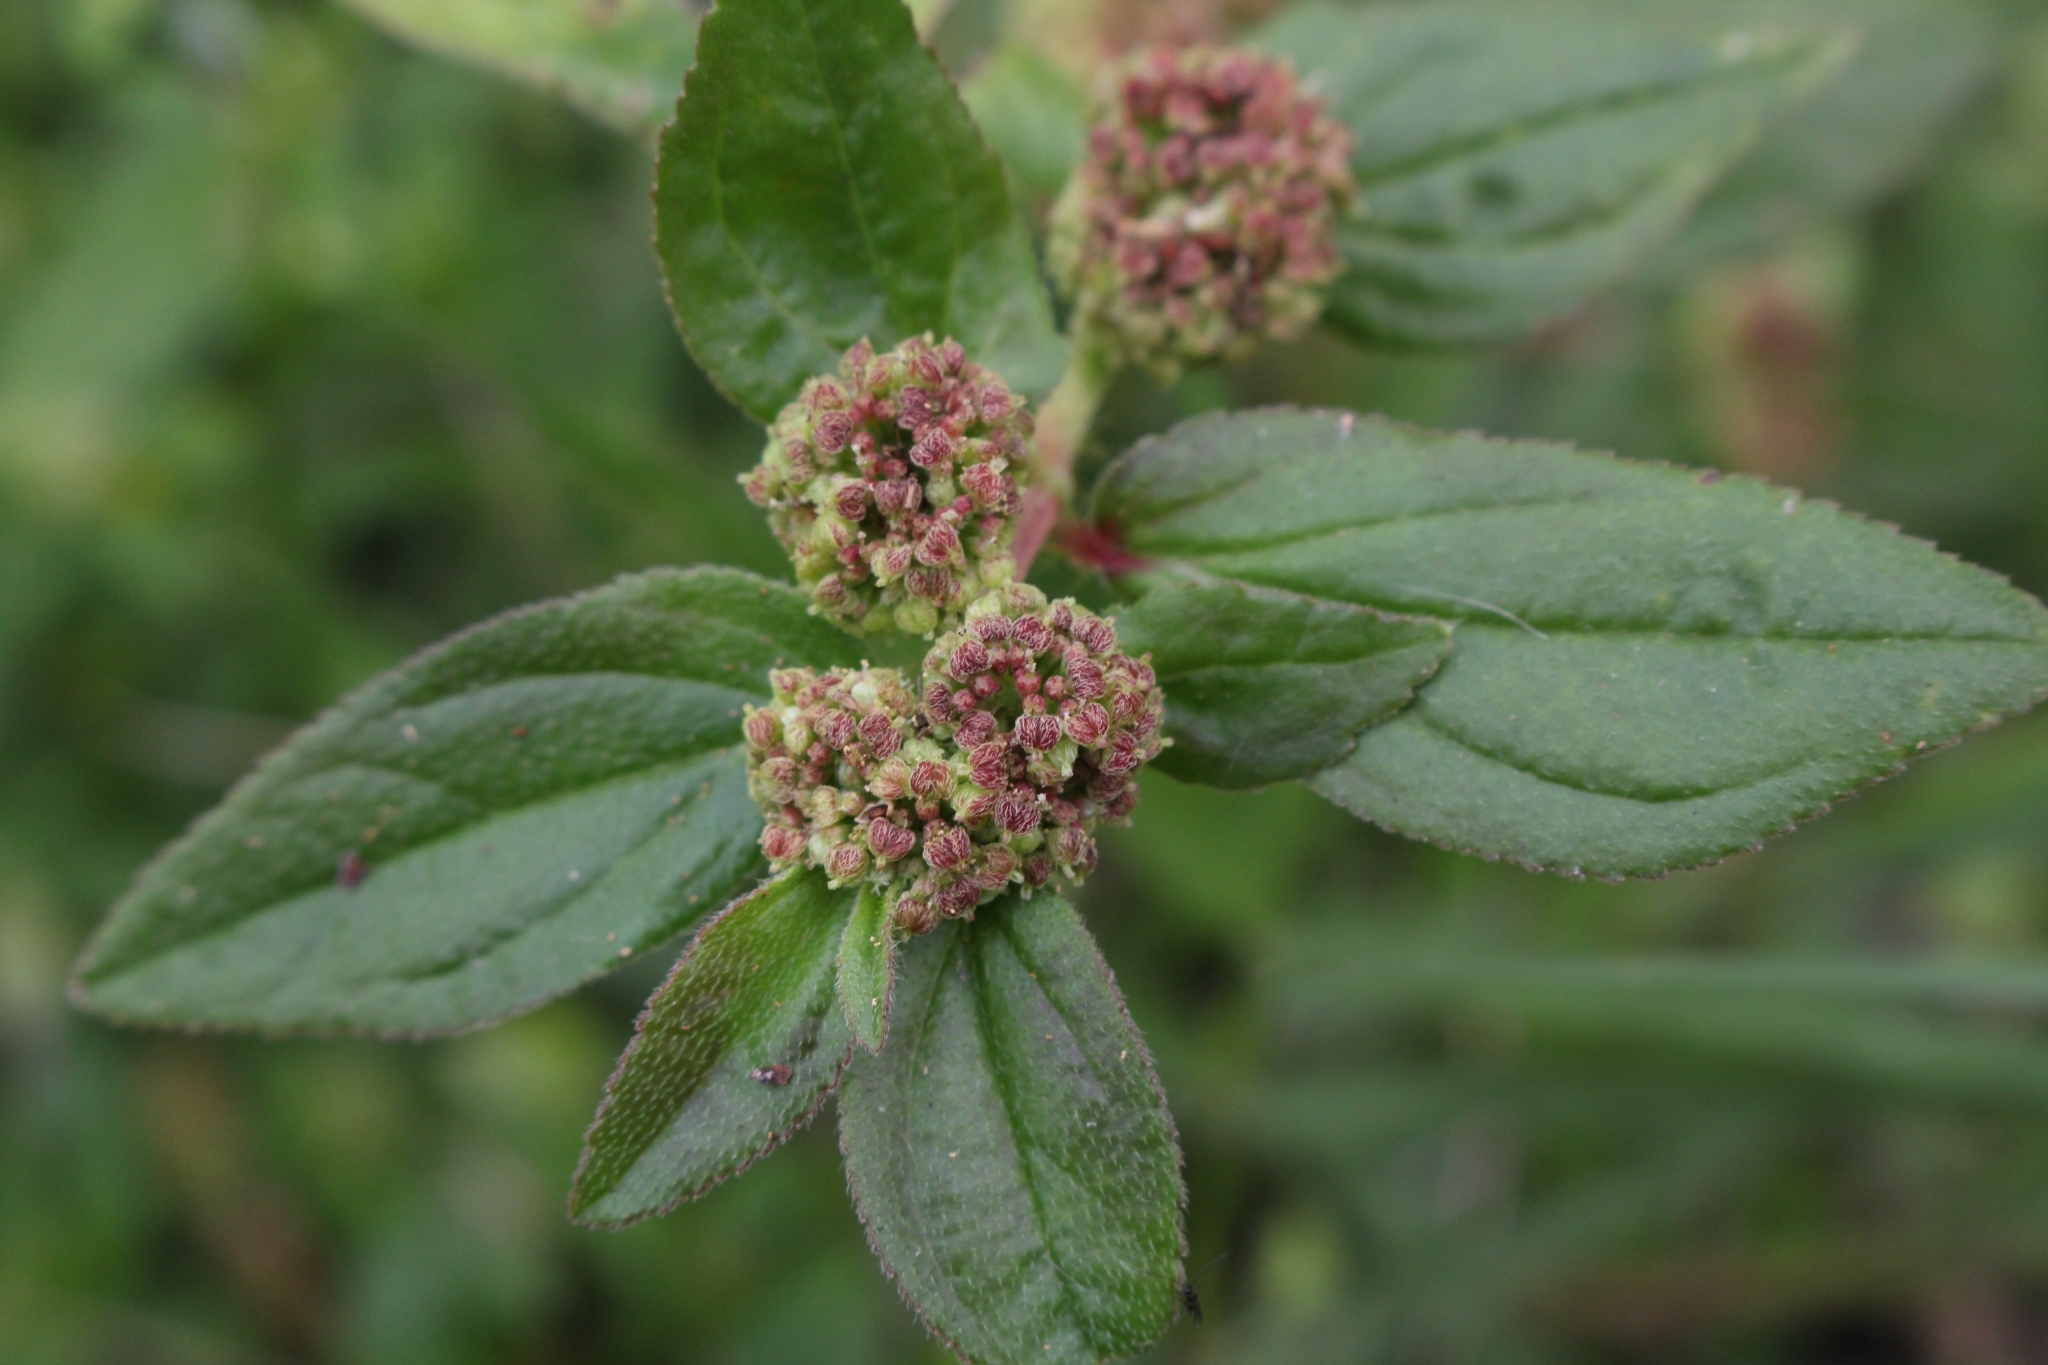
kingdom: Plantae
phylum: Tracheophyta
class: Magnoliopsida
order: Malpighiales
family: Euphorbiaceae
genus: Euphorbia
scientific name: Euphorbia hirta
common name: Pillpod sandmat
